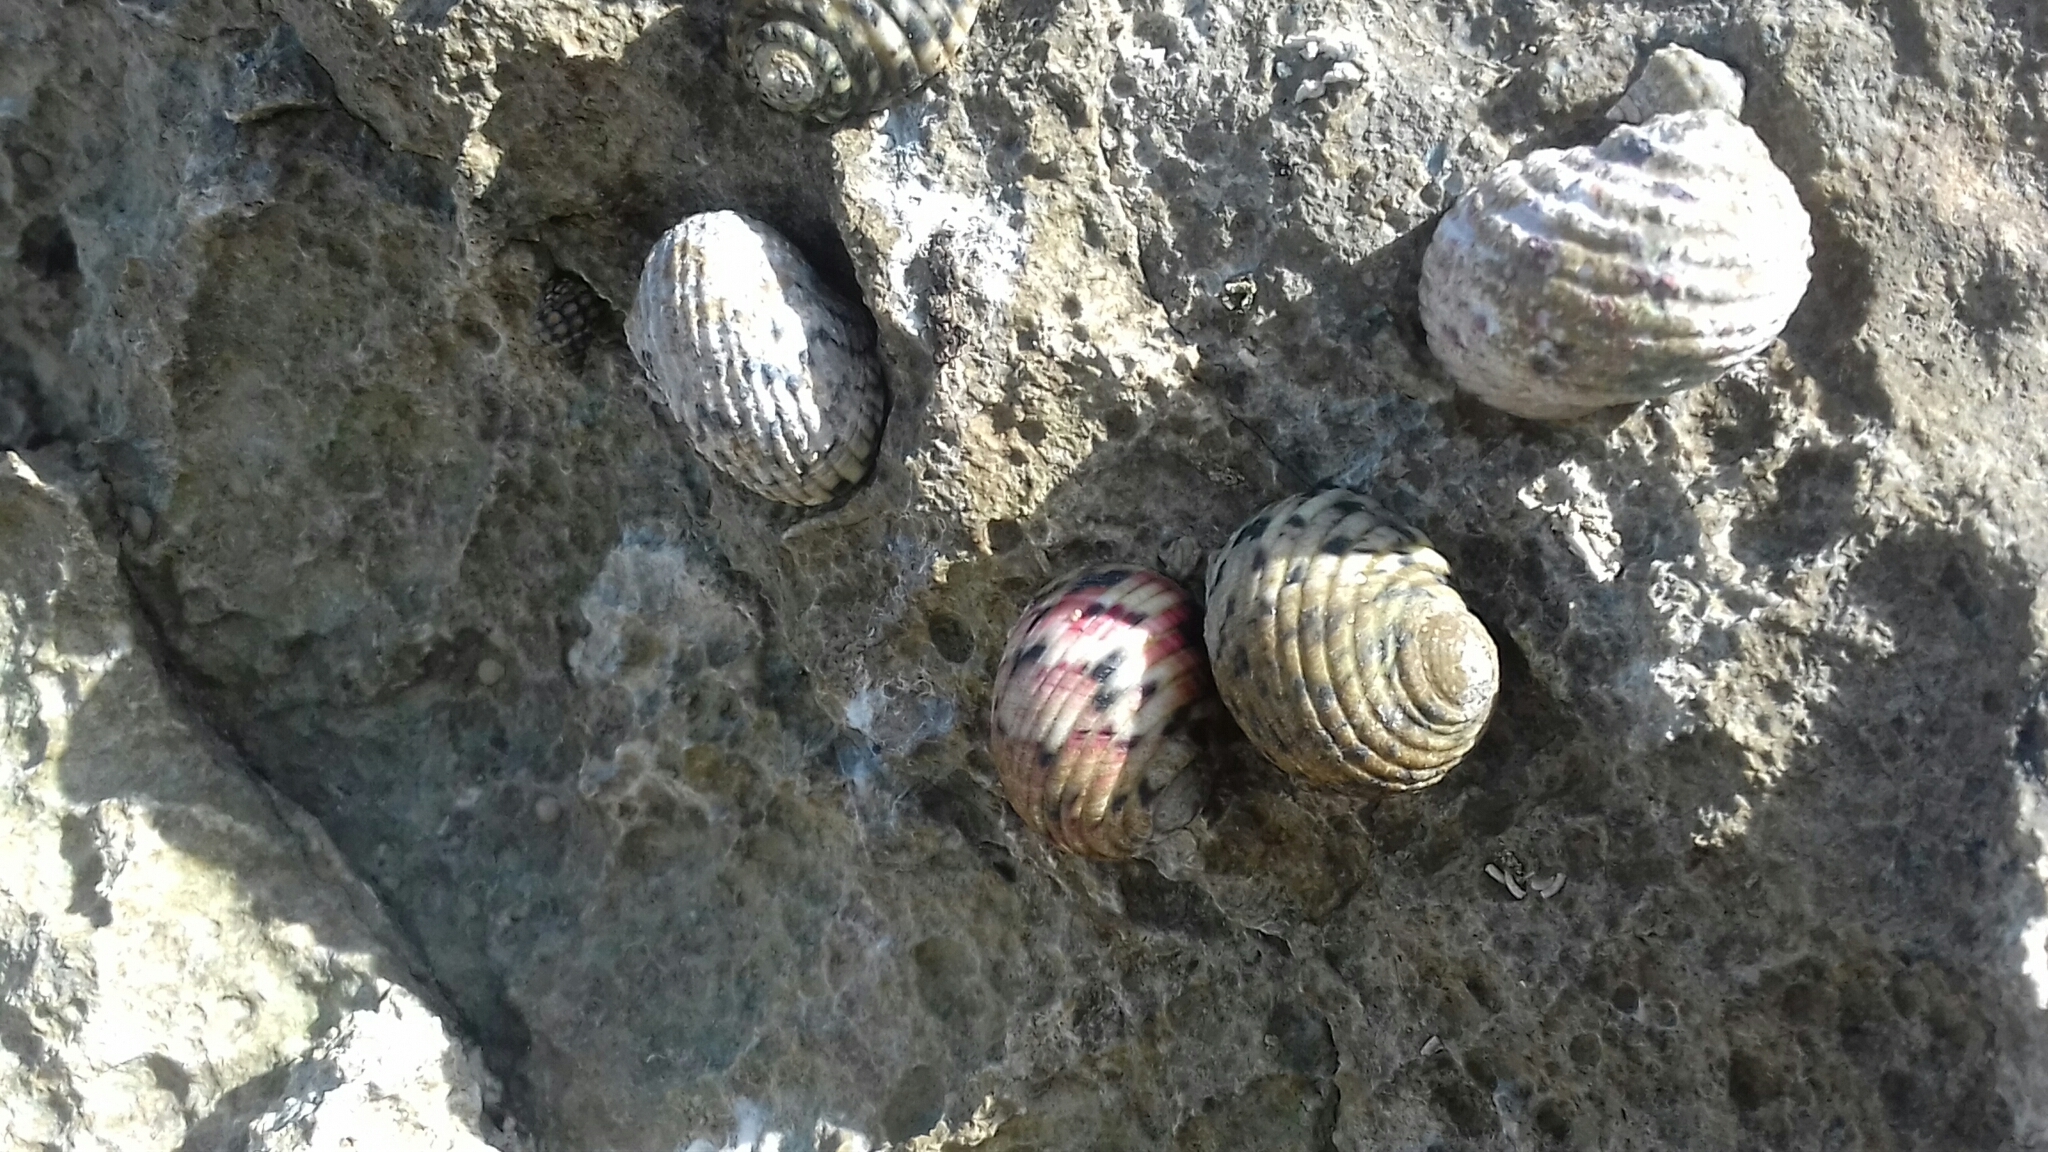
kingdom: Animalia
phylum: Mollusca
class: Gastropoda
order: Cycloneritida
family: Neritidae
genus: Nerita
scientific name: Nerita versicolor
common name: Four-tooth nerite
